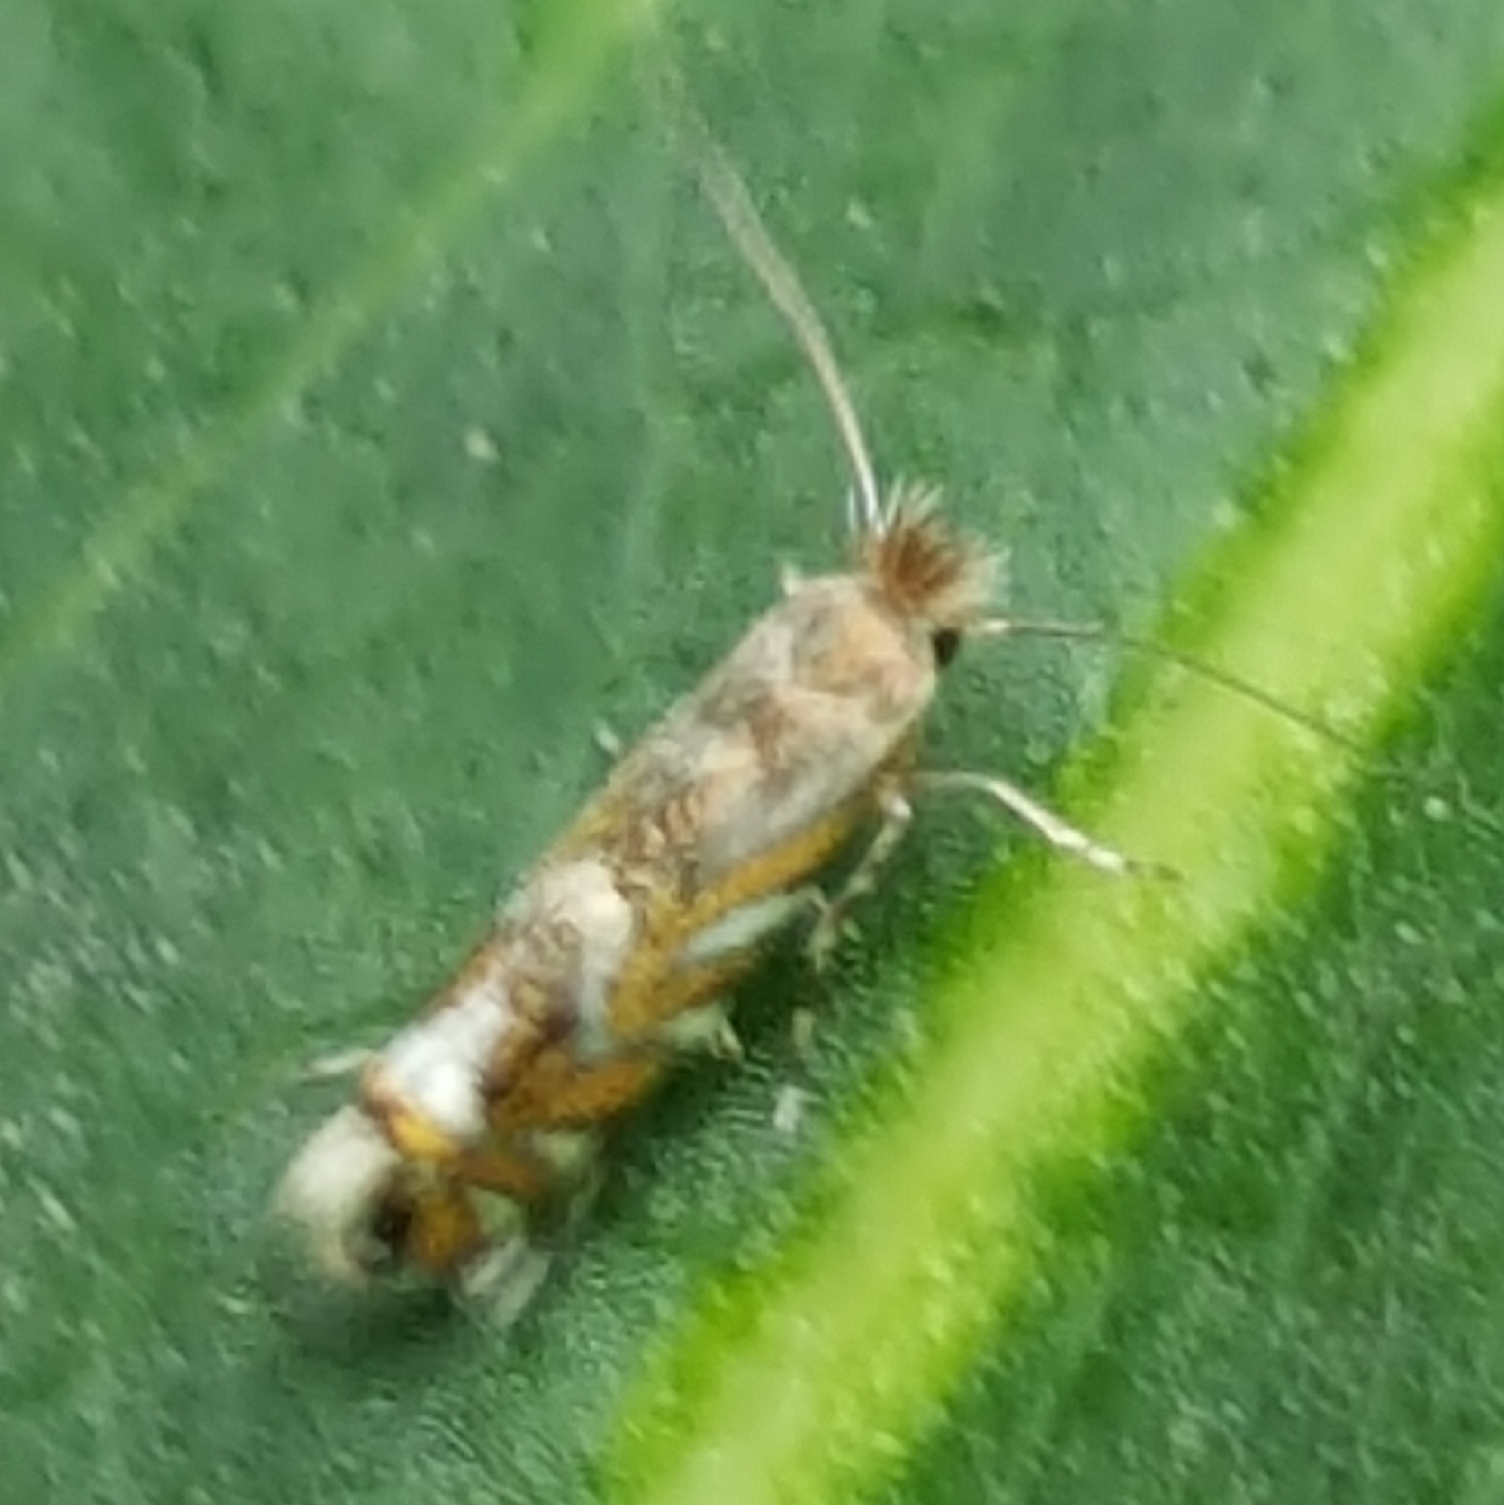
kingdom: Animalia
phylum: Arthropoda
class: Insecta
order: Lepidoptera
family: Gracillariidae
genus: Macrosaccus
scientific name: Macrosaccus robiniella
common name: Leaf blotch miner moth
